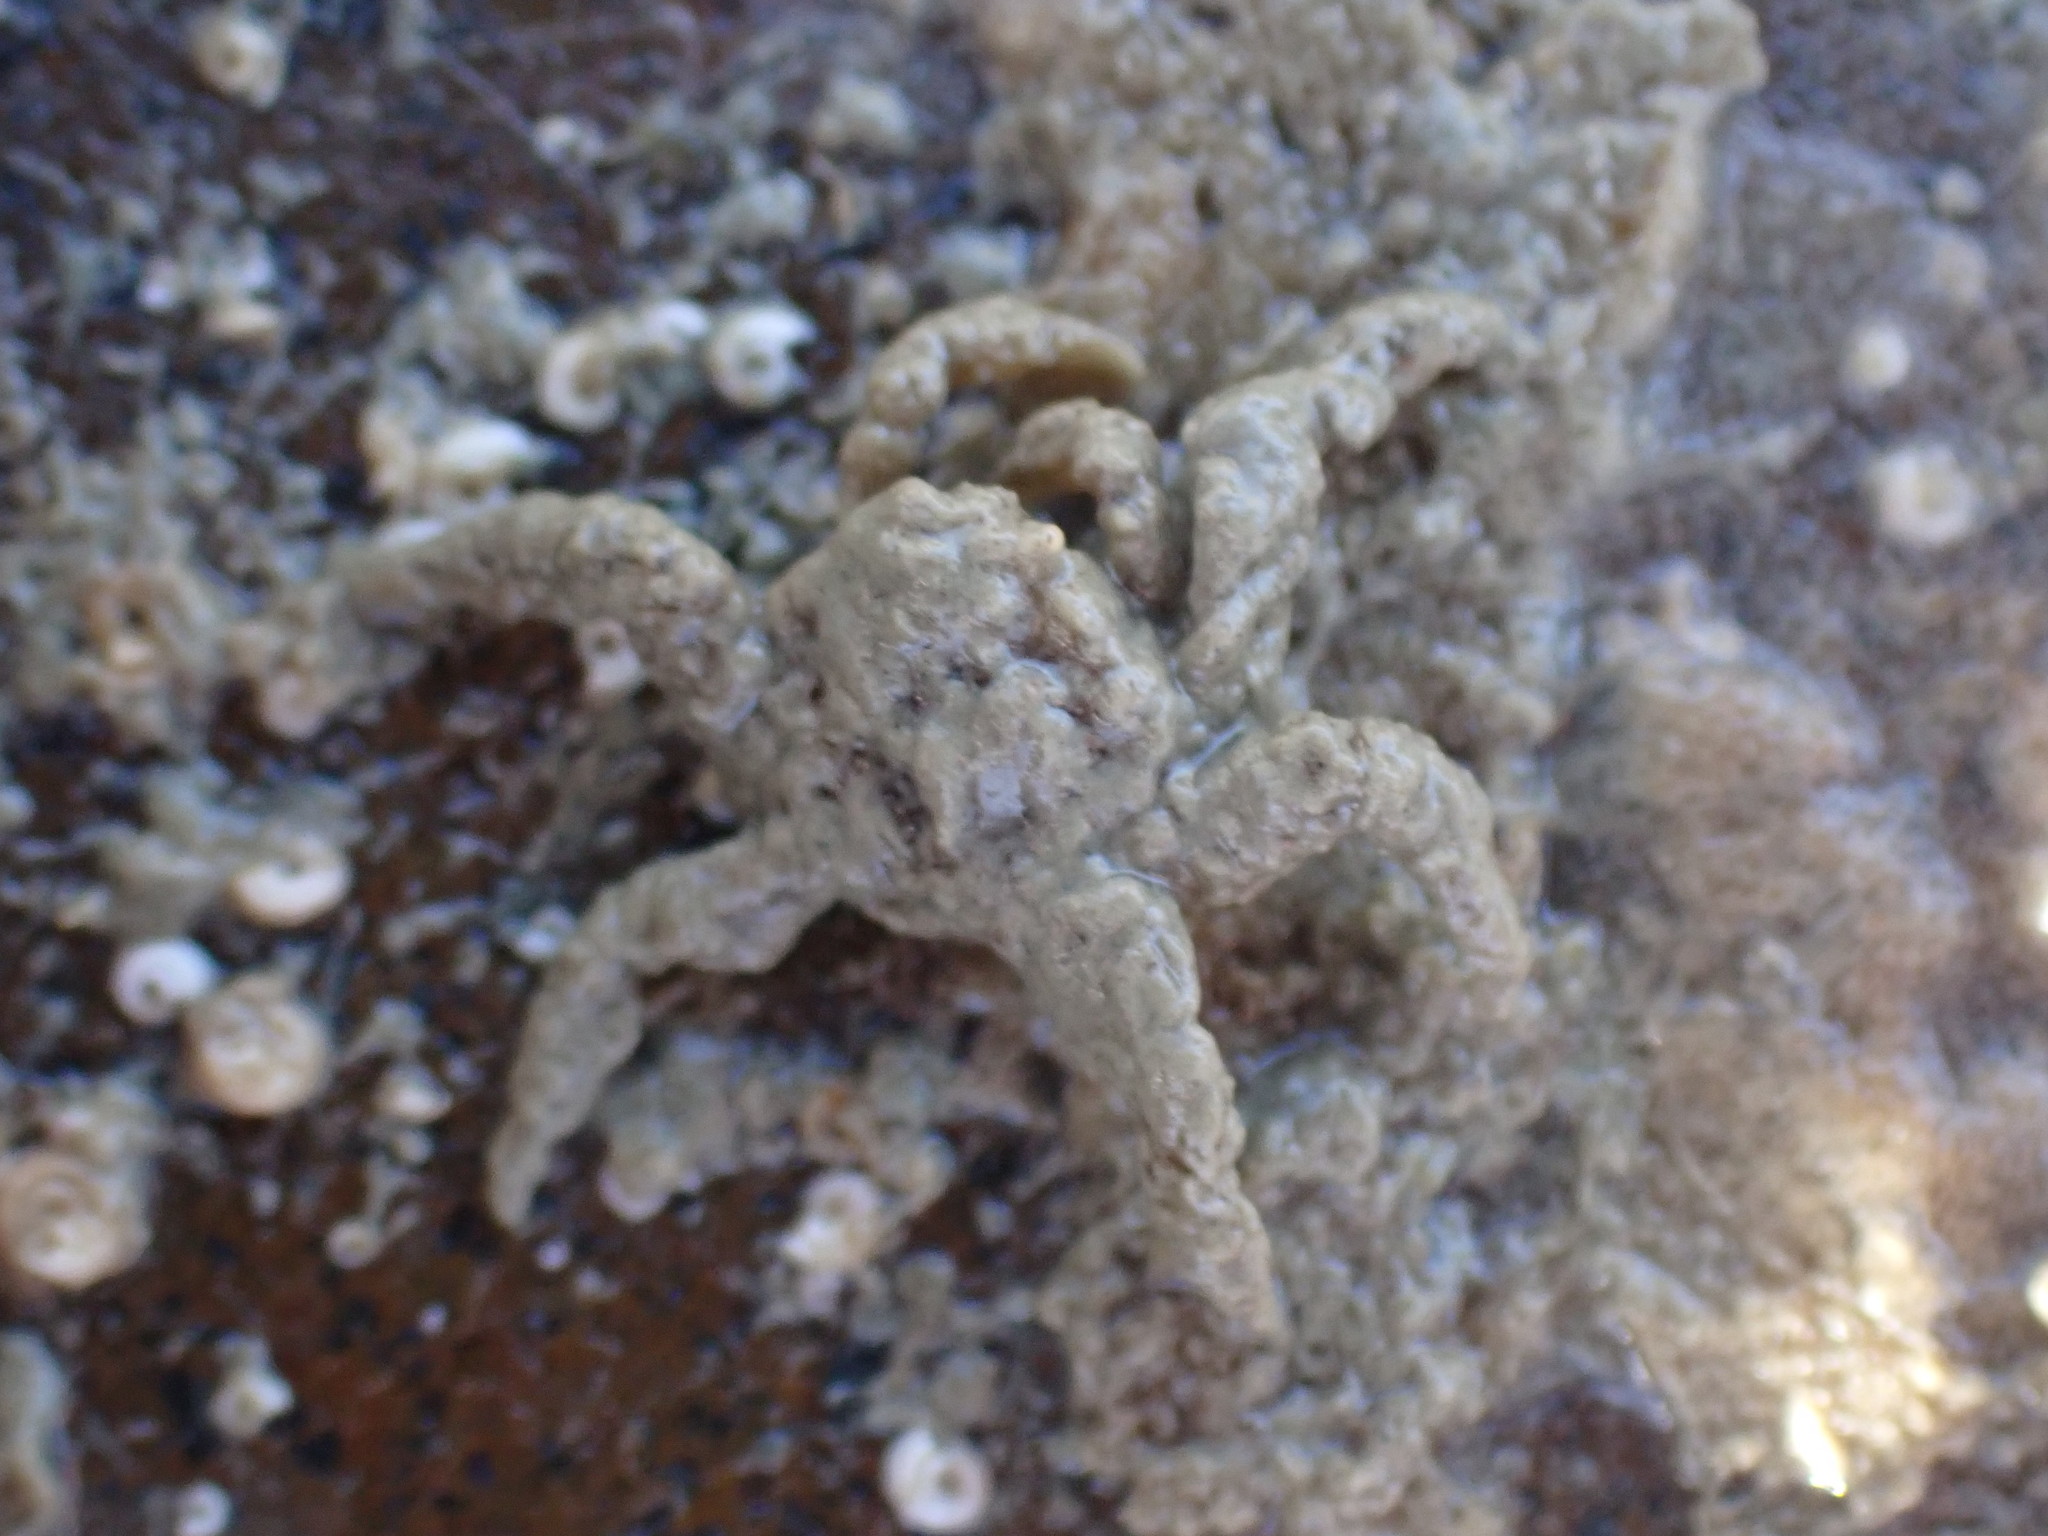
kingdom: Animalia
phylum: Arthropoda
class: Malacostraca
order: Decapoda
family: Hymenosomatidae
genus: Neohymenicus
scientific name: Neohymenicus pubescens
